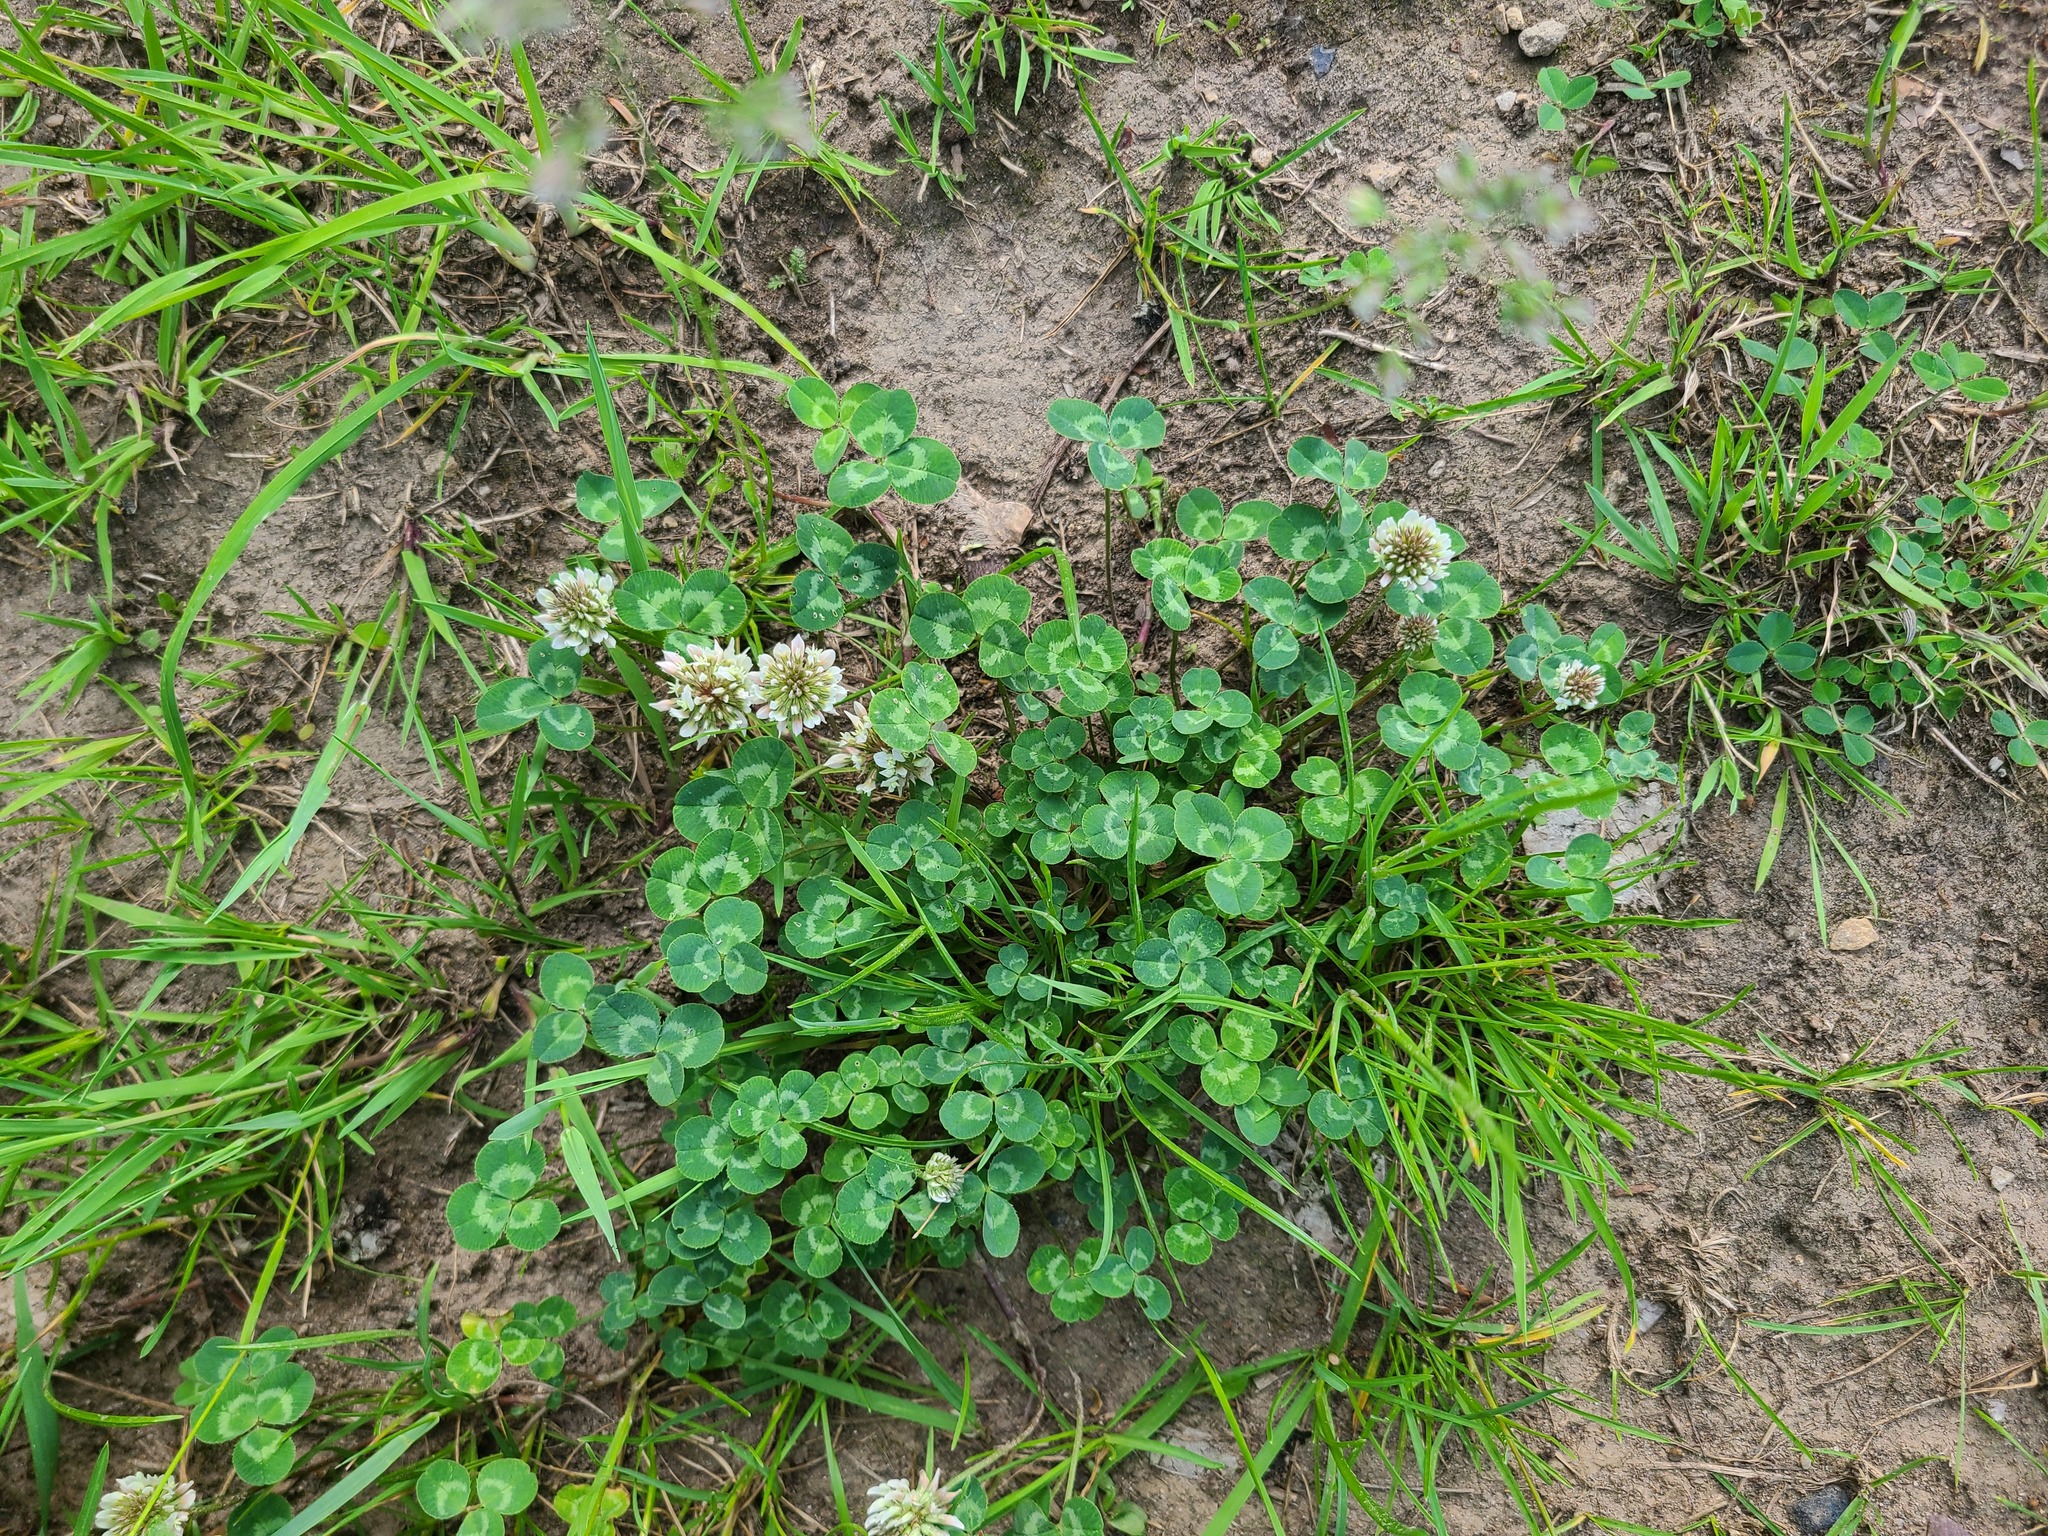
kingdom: Plantae
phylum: Tracheophyta
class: Magnoliopsida
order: Fabales
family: Fabaceae
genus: Trifolium
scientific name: Trifolium repens
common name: White clover
